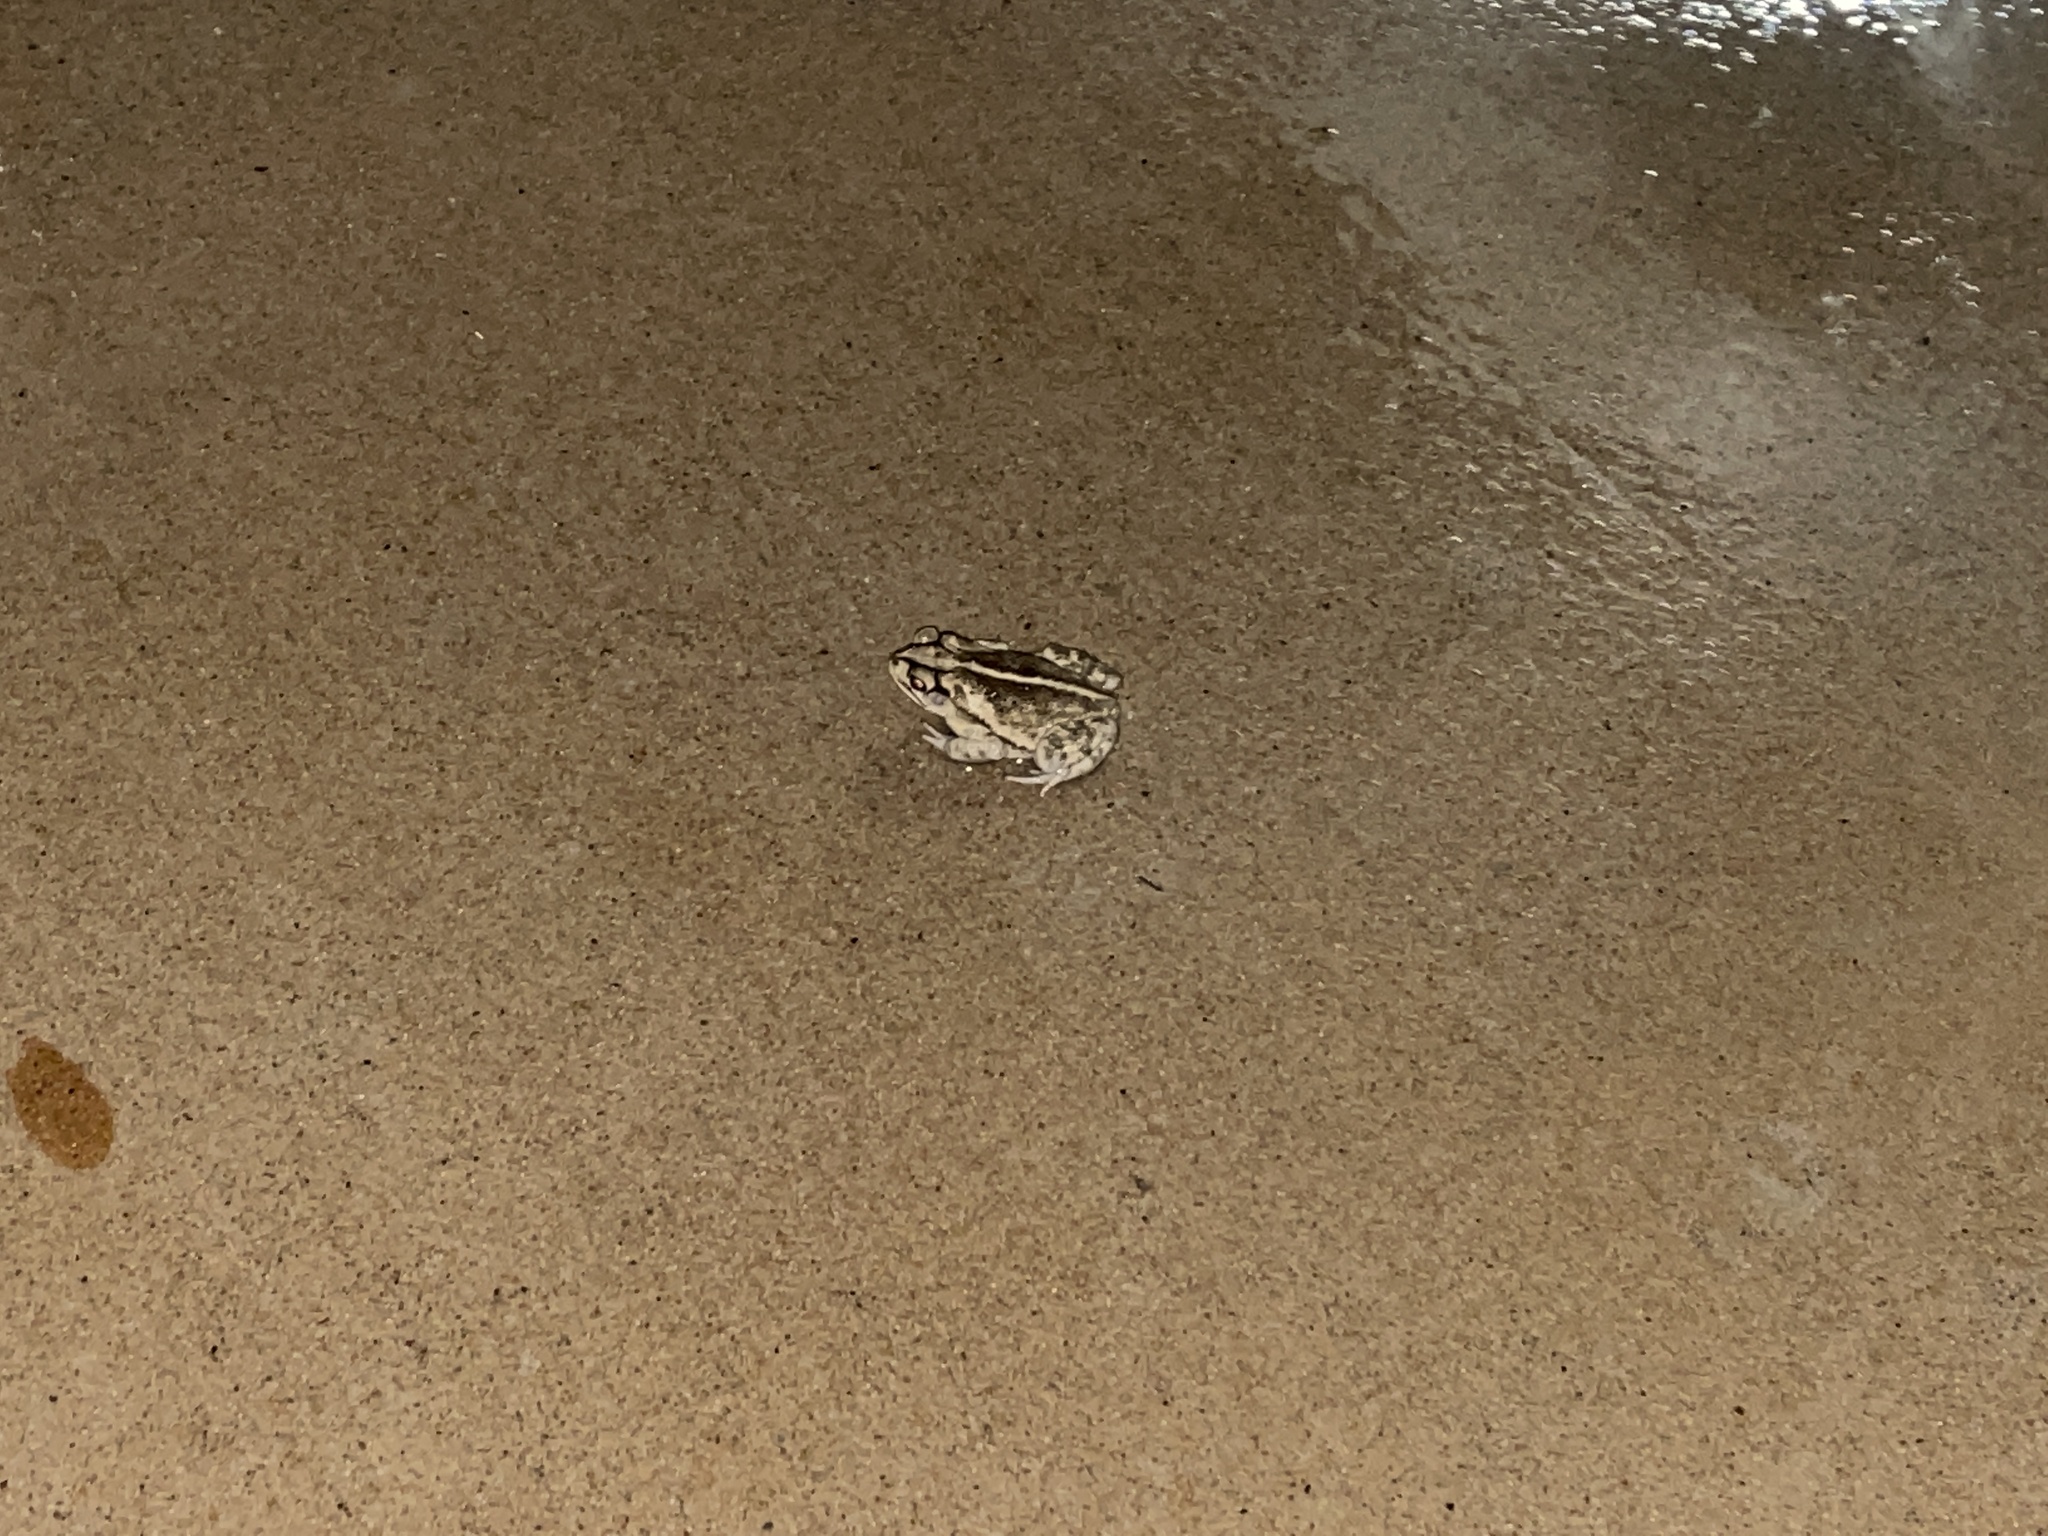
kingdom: Animalia
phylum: Chordata
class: Amphibia
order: Anura
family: Bufonidae
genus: Incilius
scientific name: Incilius nebulifer
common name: Gulf coast toad
